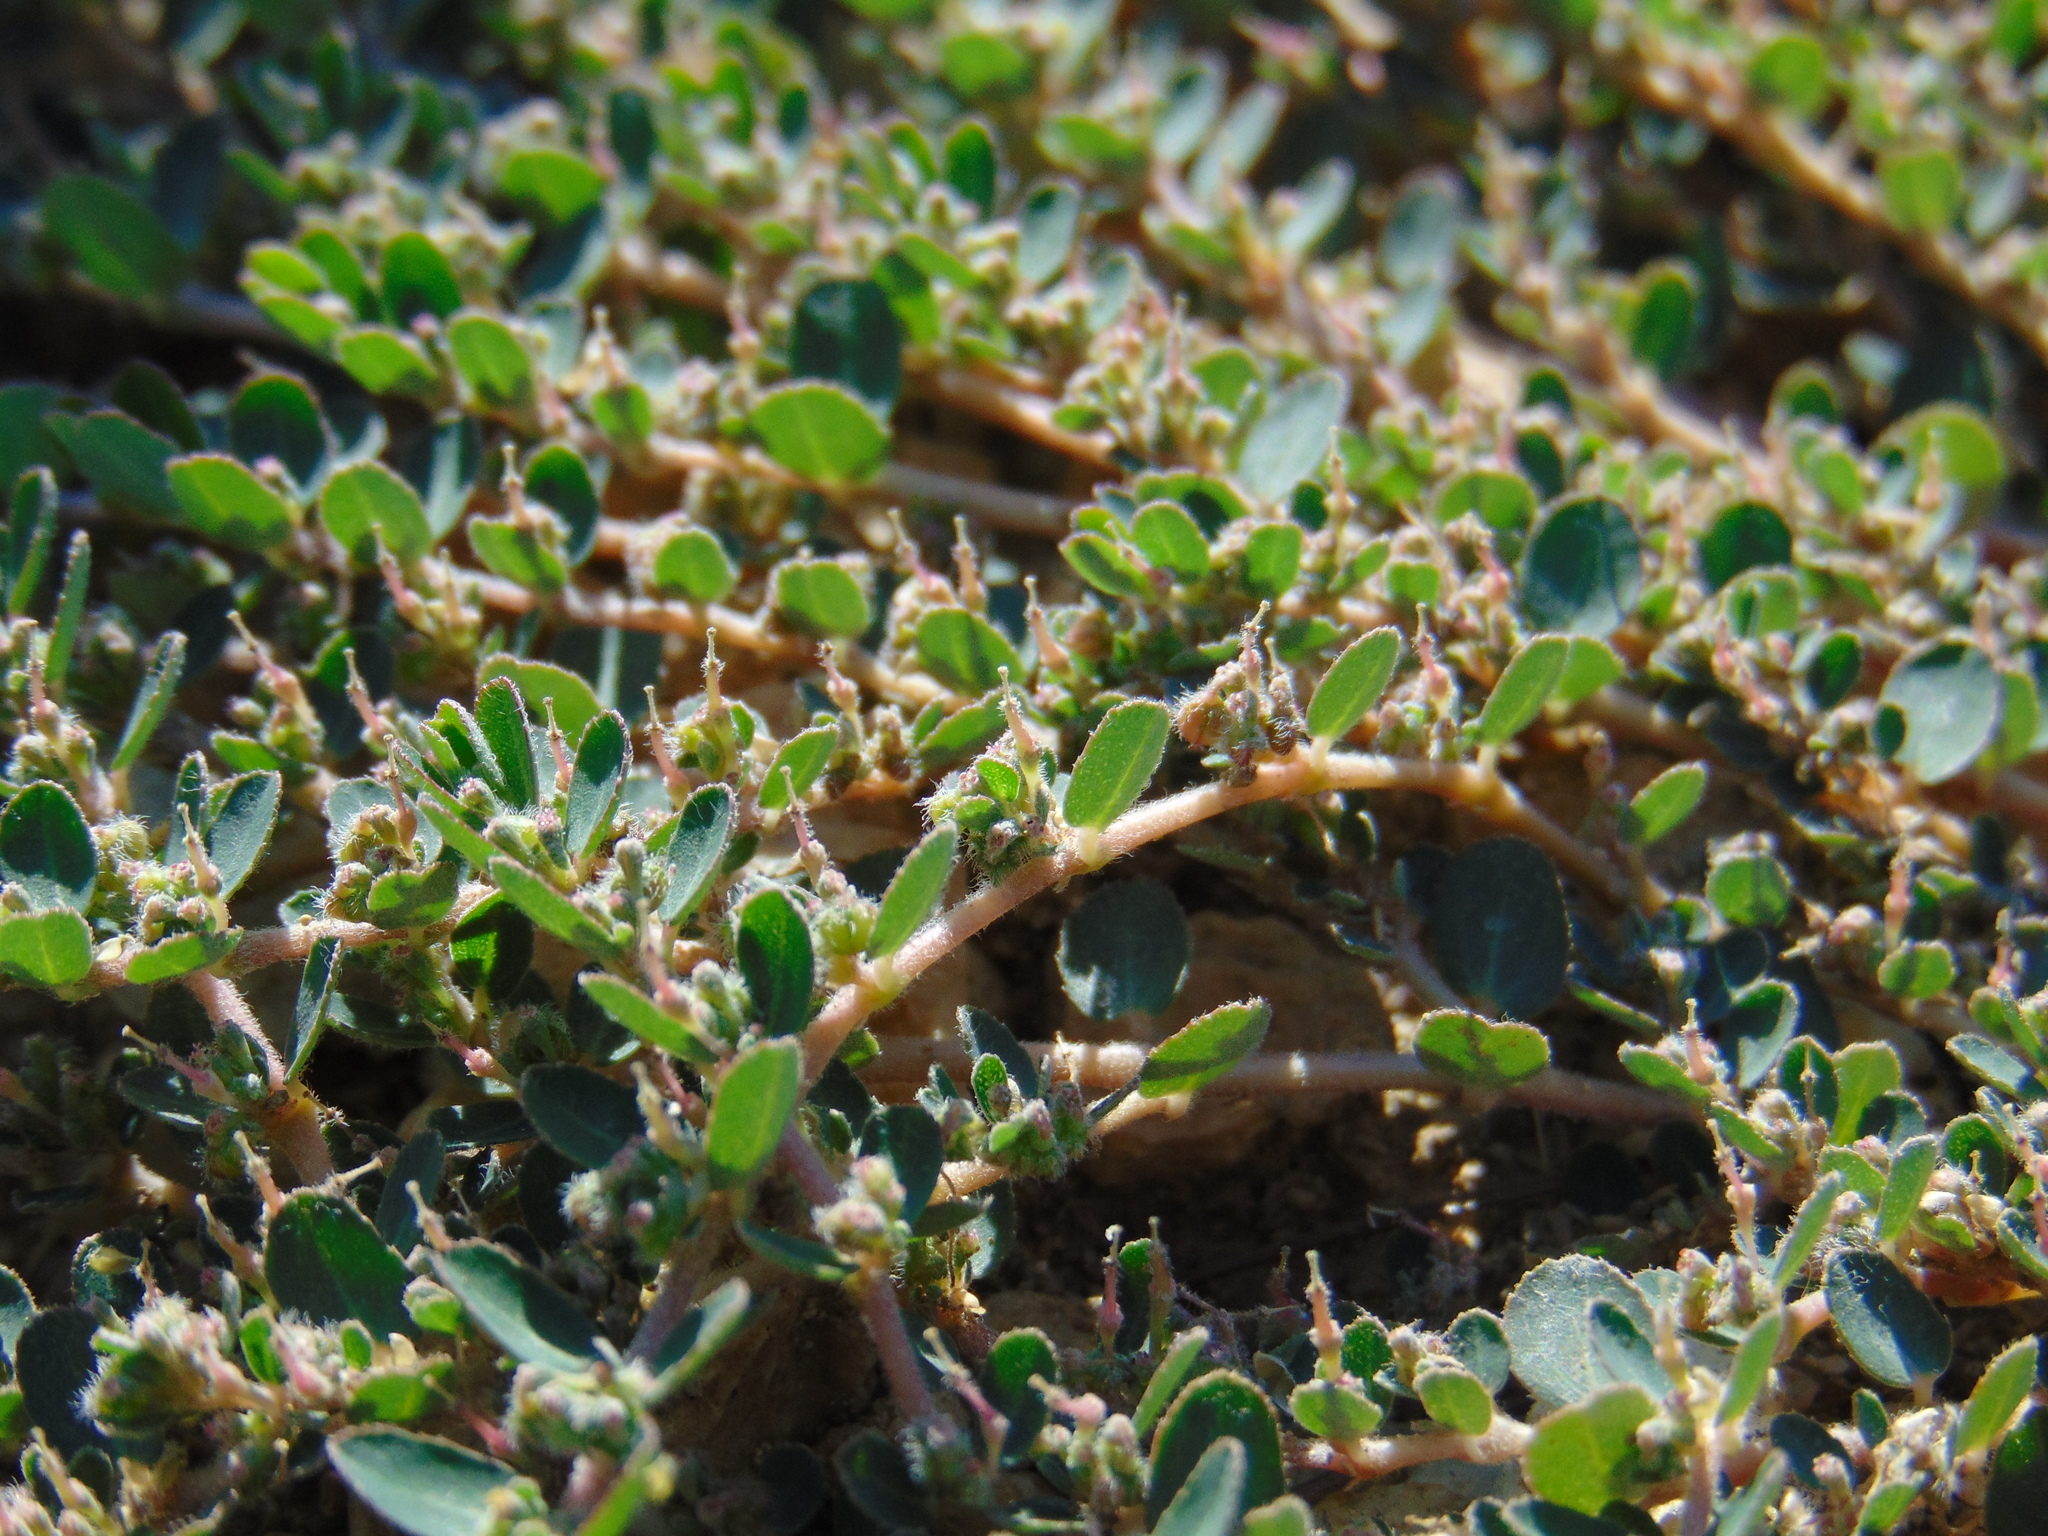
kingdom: Plantae
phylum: Tracheophyta
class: Magnoliopsida
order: Malpighiales
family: Euphorbiaceae
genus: Euphorbia
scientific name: Euphorbia prostrata
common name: Prostrate sandmat
